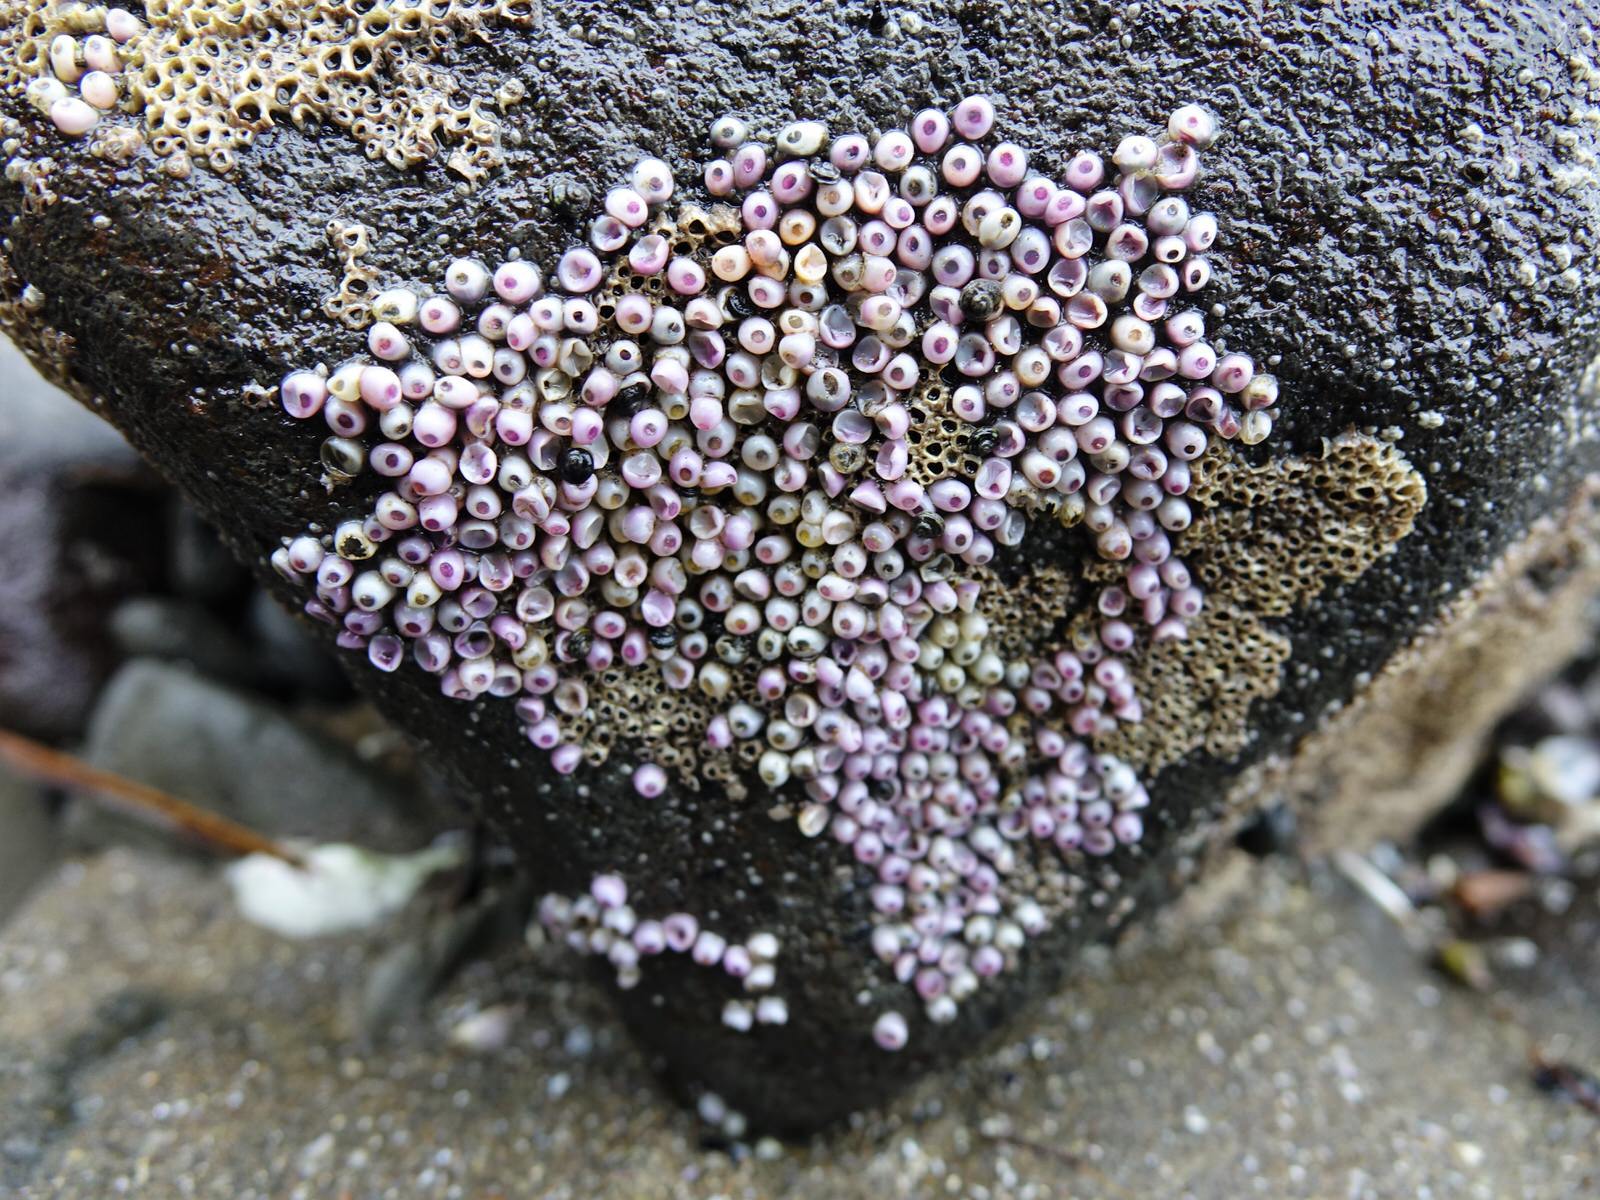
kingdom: Animalia
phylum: Mollusca
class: Gastropoda
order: Neogastropoda
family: Muricidae
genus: Haustrum
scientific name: Haustrum
